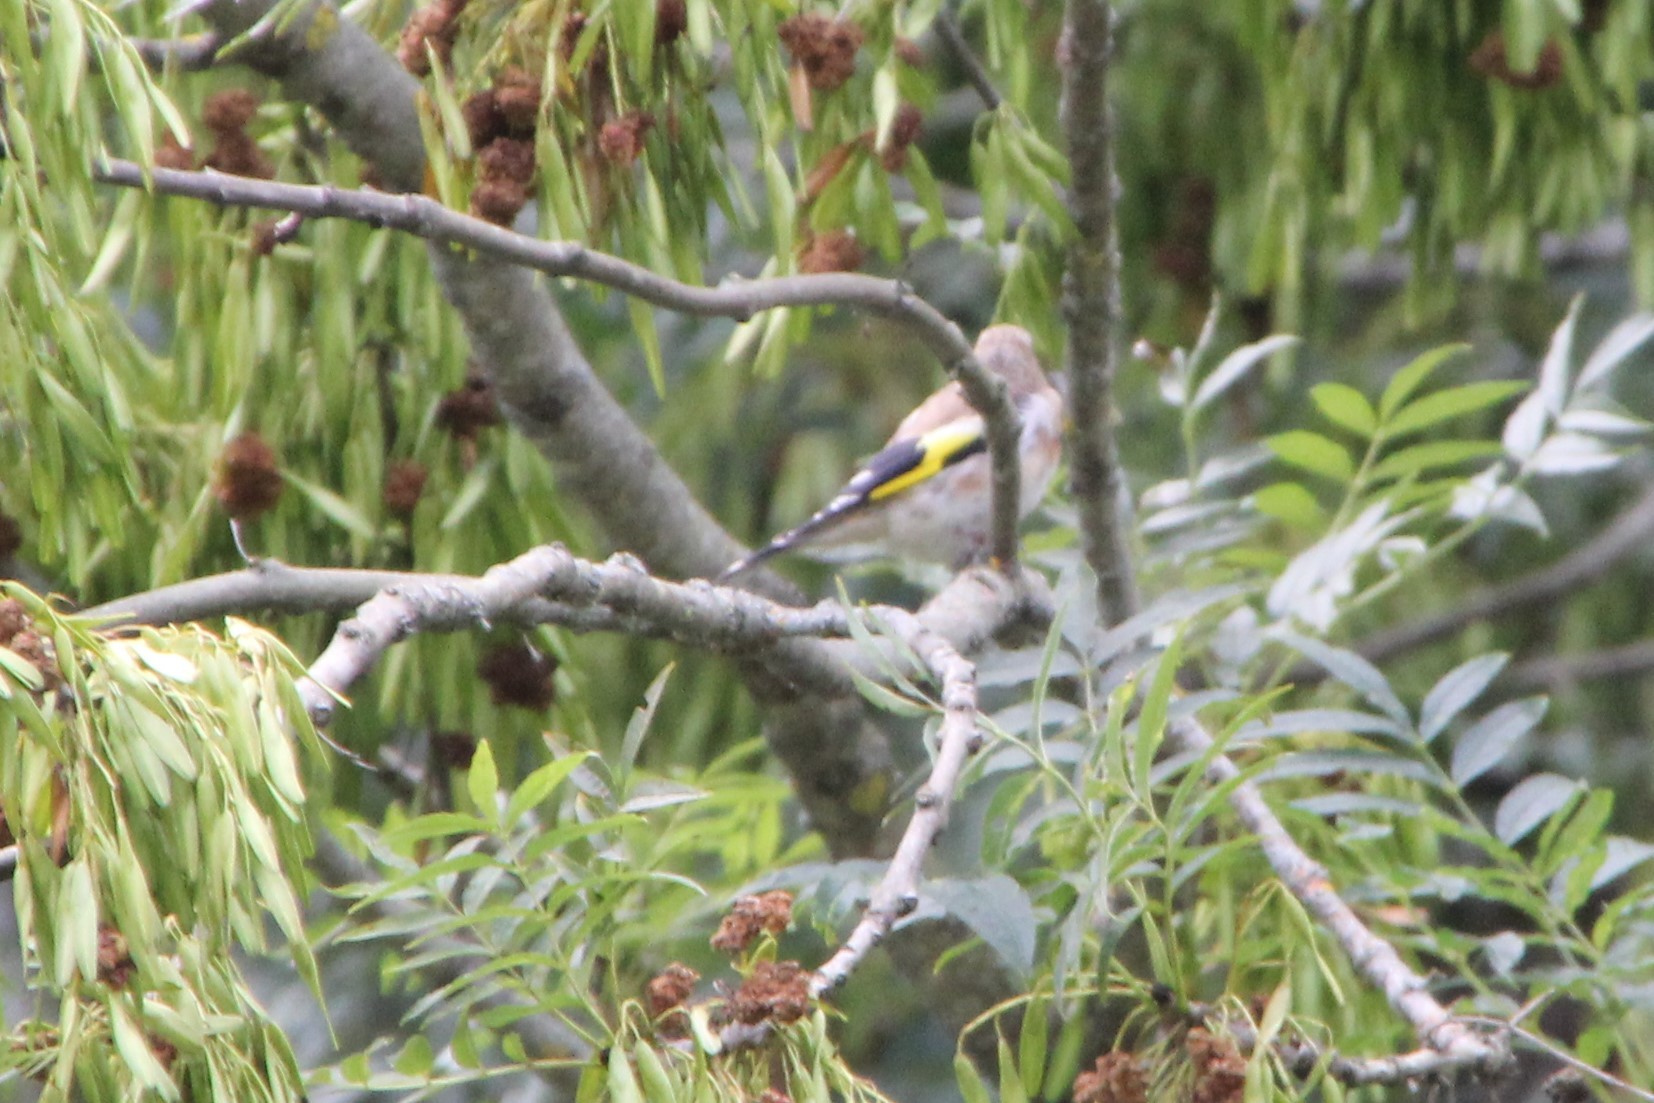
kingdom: Animalia
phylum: Chordata
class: Aves
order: Passeriformes
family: Fringillidae
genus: Carduelis
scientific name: Carduelis carduelis
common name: European goldfinch
